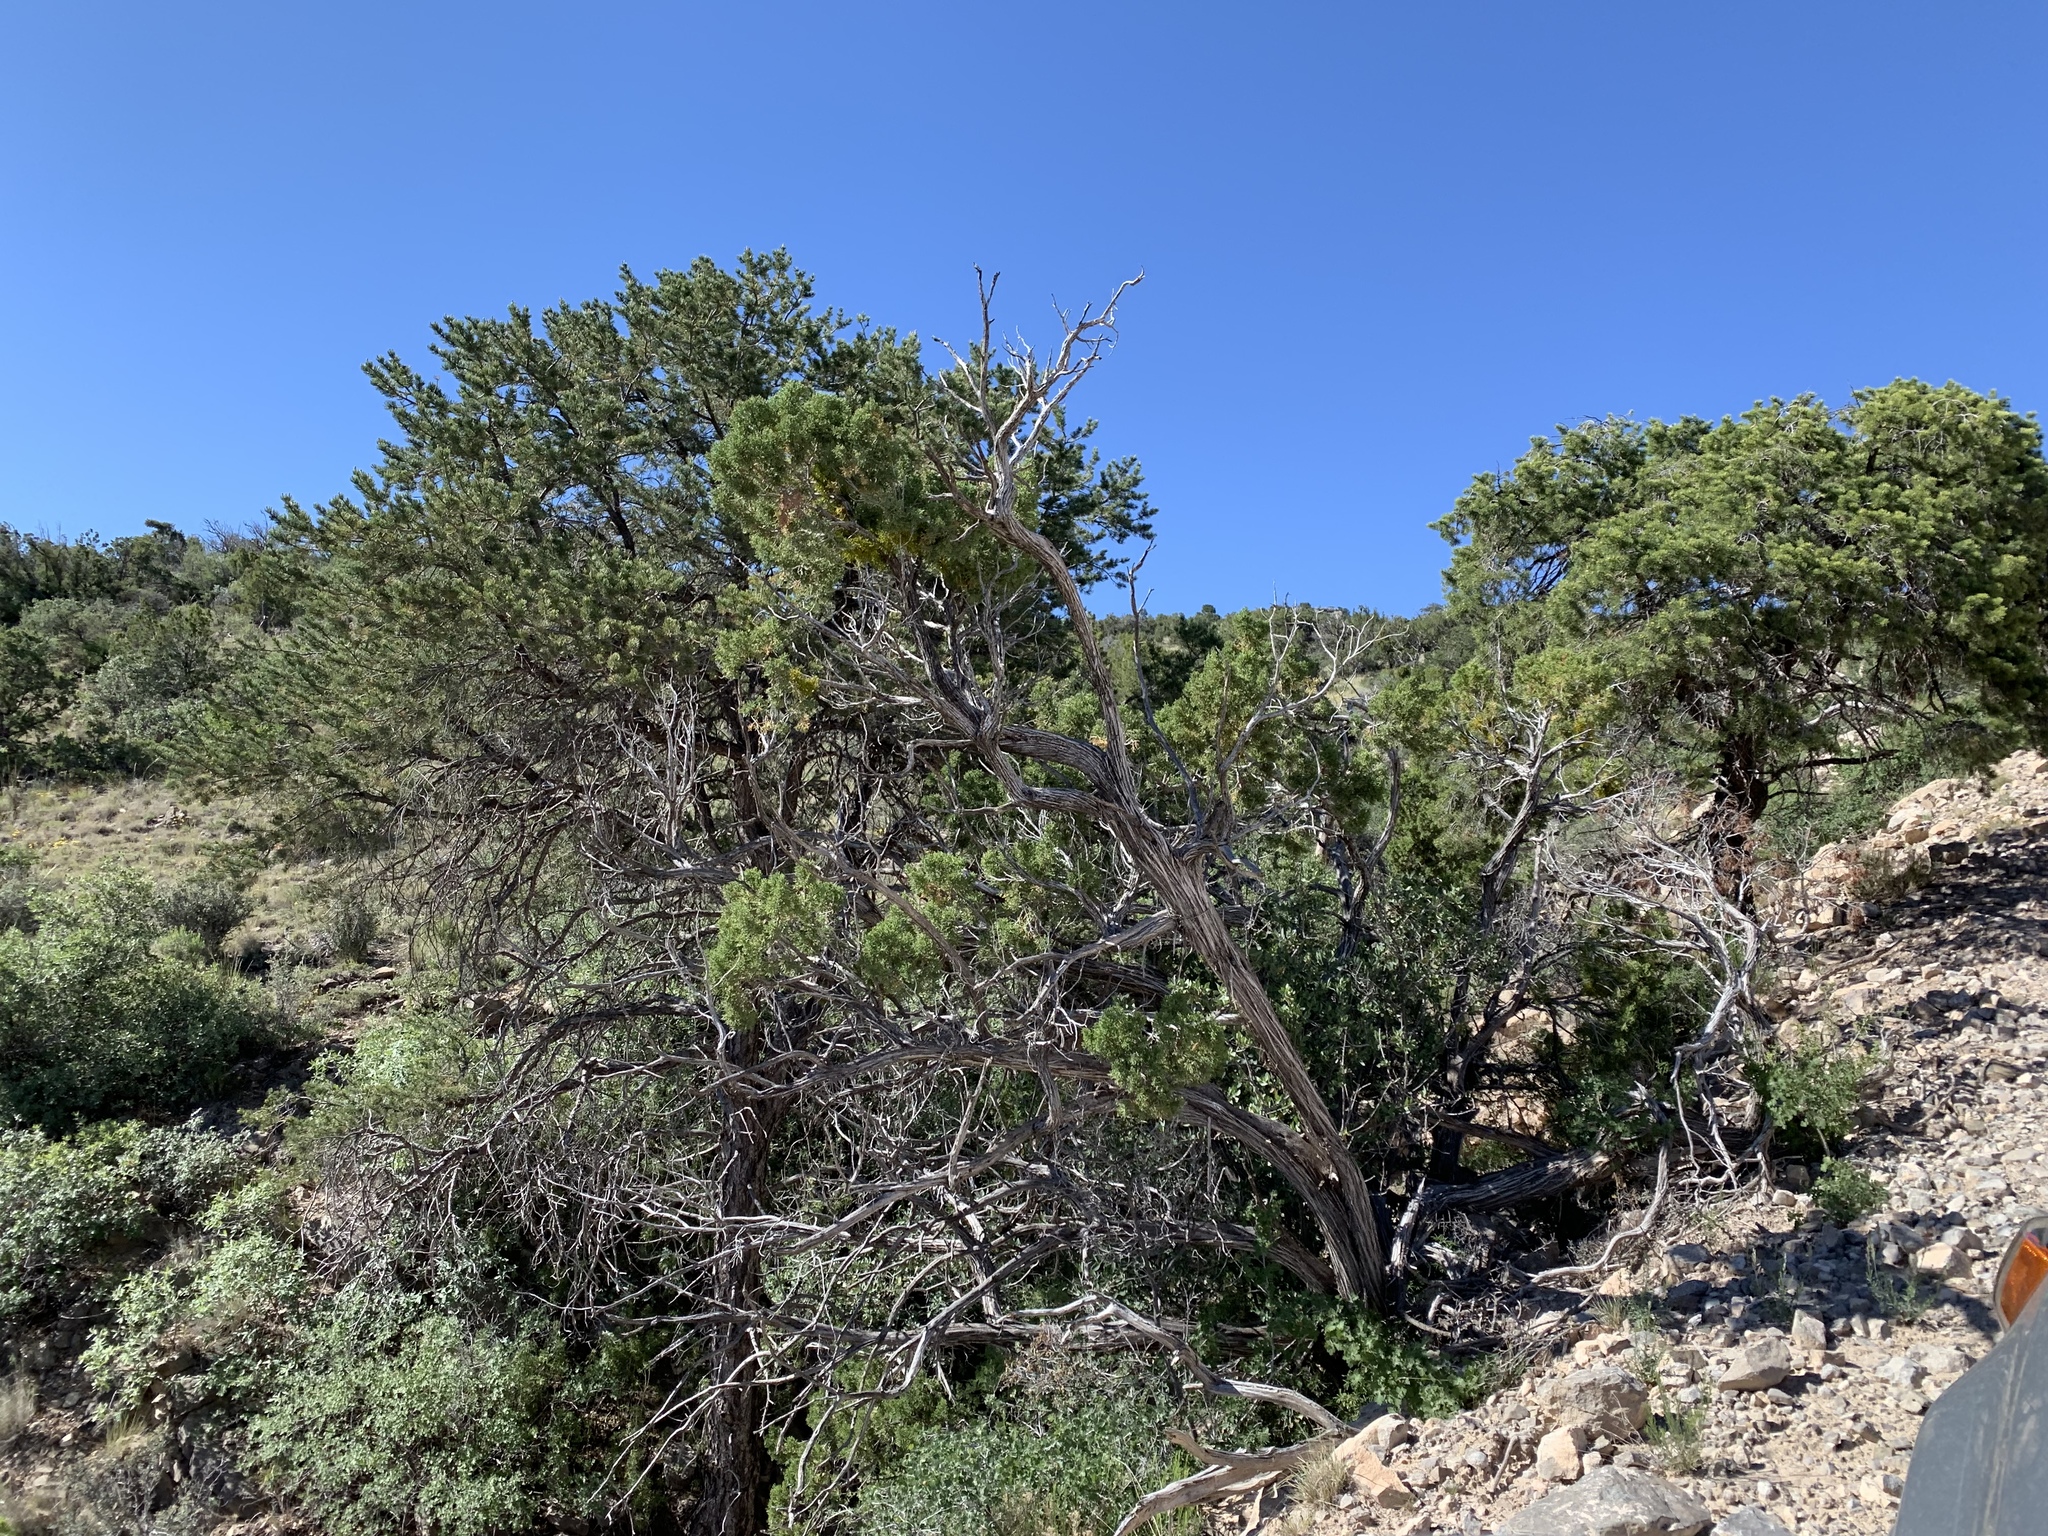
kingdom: Plantae
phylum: Tracheophyta
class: Pinopsida
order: Pinales
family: Pinaceae
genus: Pinus
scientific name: Pinus edulis
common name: Colorado pinyon
